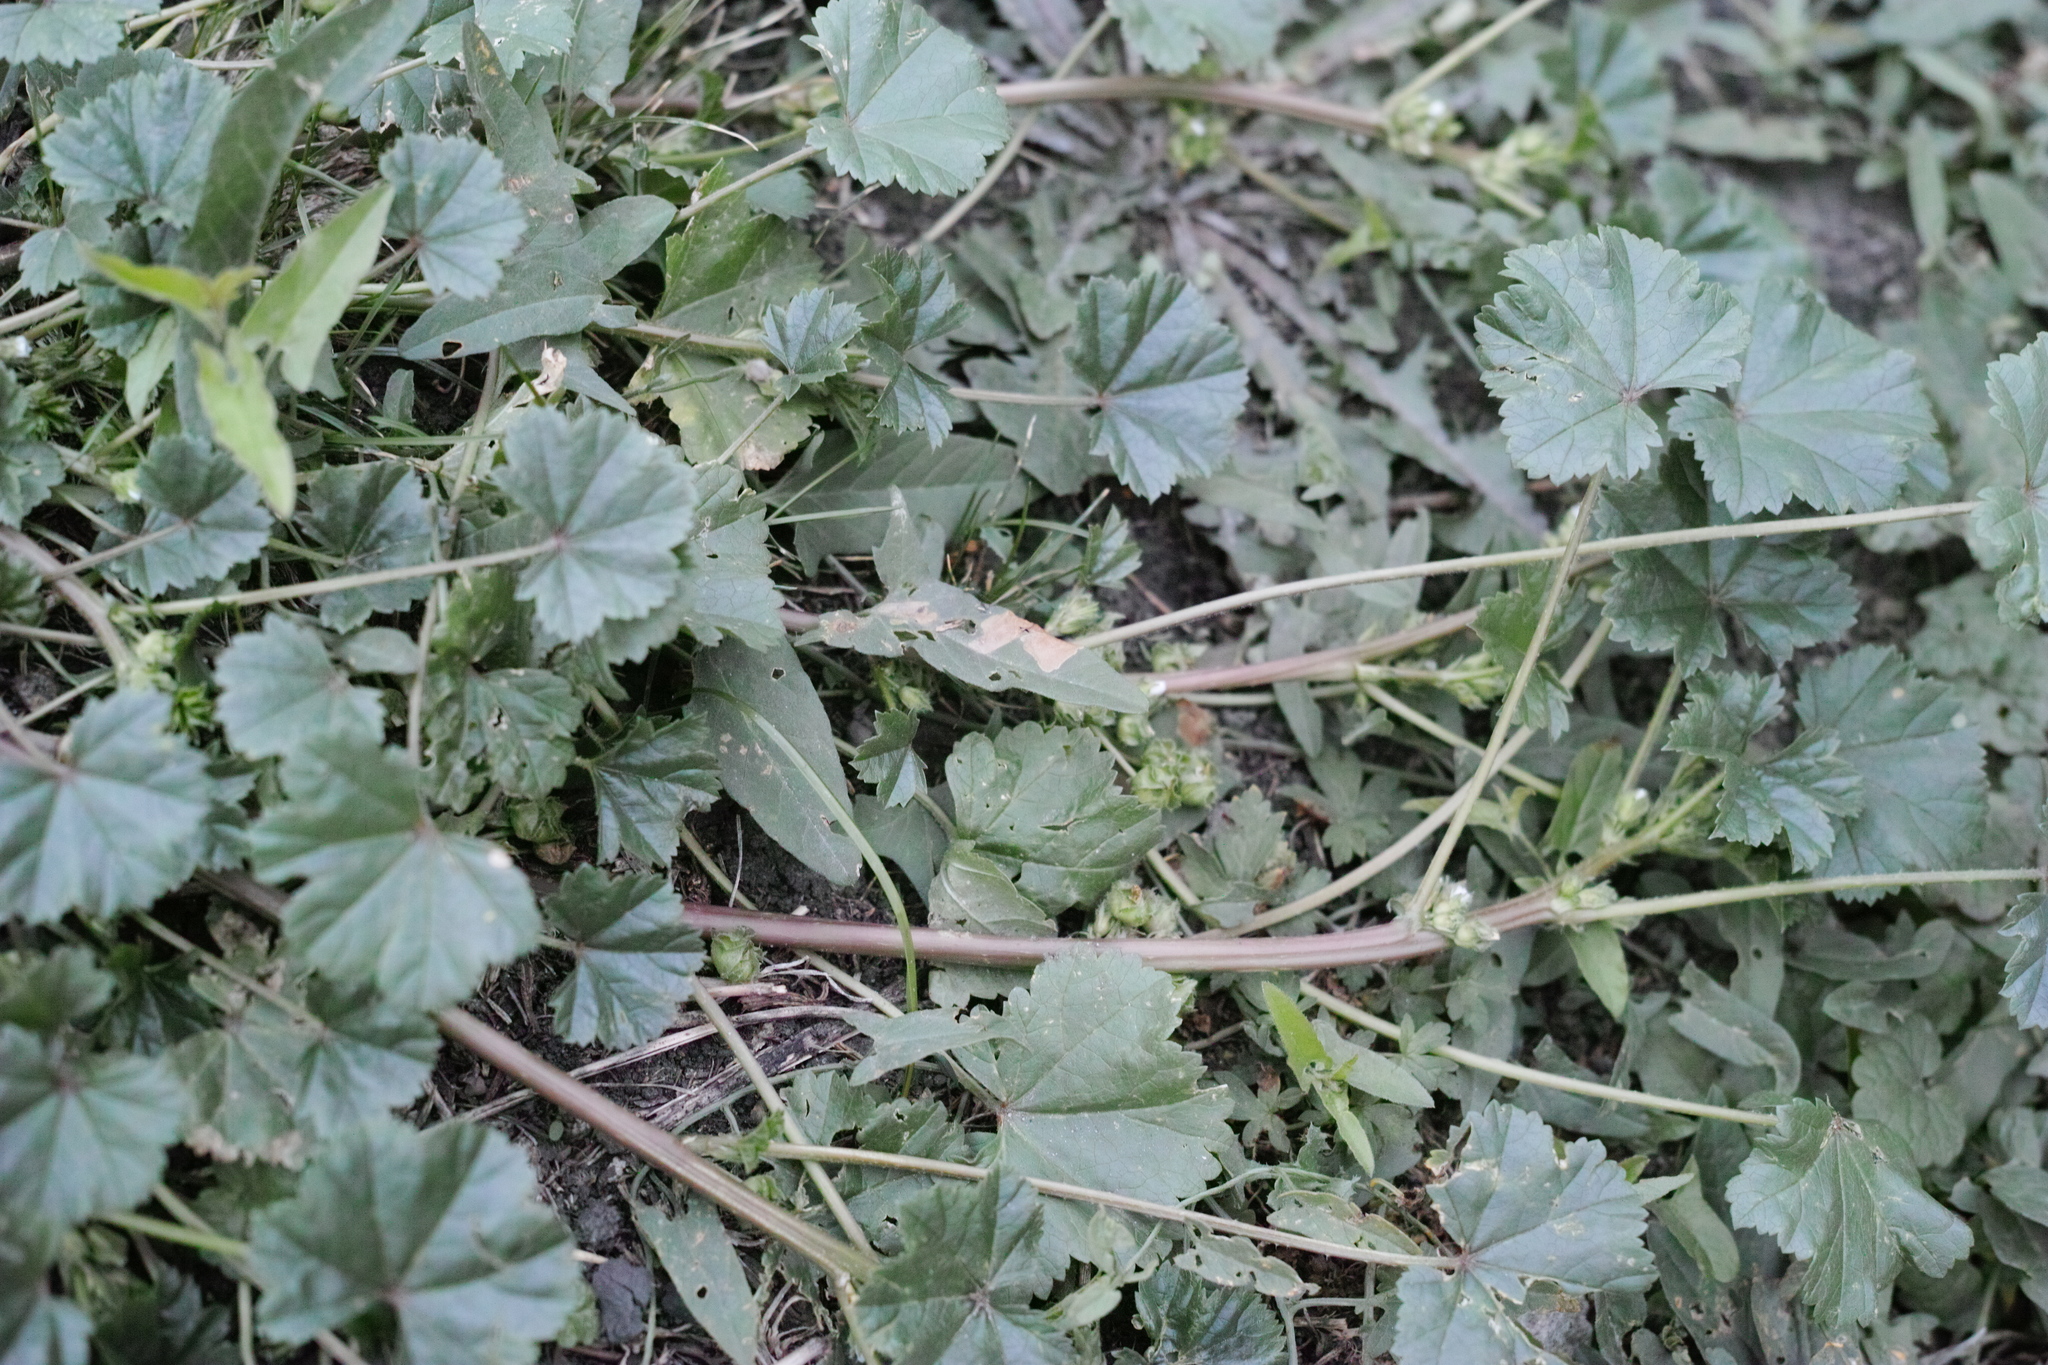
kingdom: Plantae
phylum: Tracheophyta
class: Magnoliopsida
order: Malvales
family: Malvaceae
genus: Malva
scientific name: Malva pusilla
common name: Small mallow
